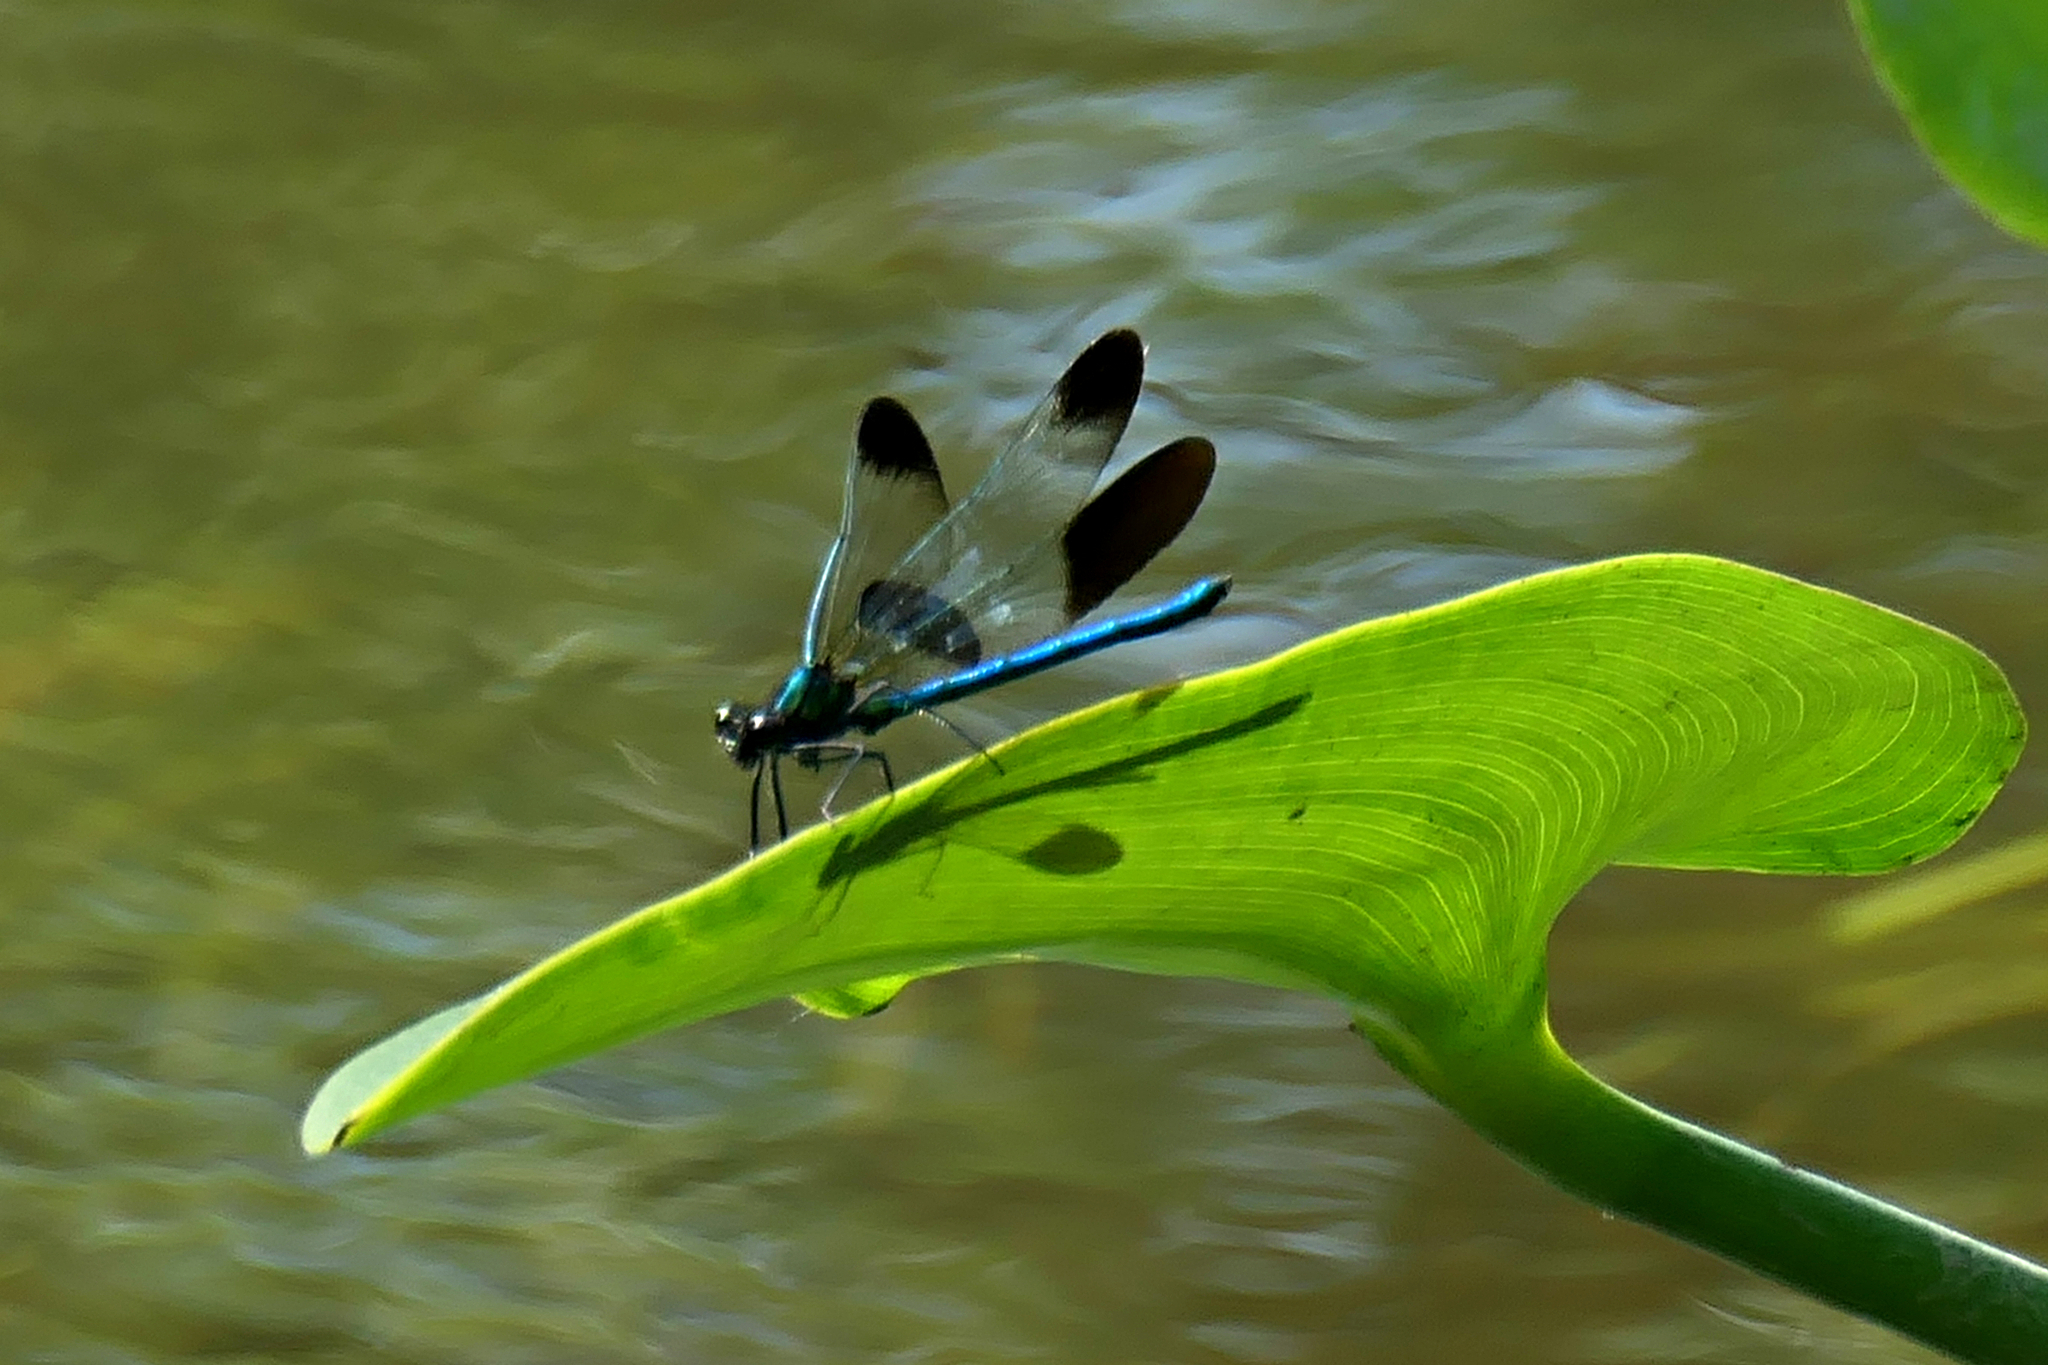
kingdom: Animalia
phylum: Arthropoda
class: Insecta
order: Odonata
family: Calopterygidae
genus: Calopteryx
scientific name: Calopteryx aequabilis
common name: River jewelwing
